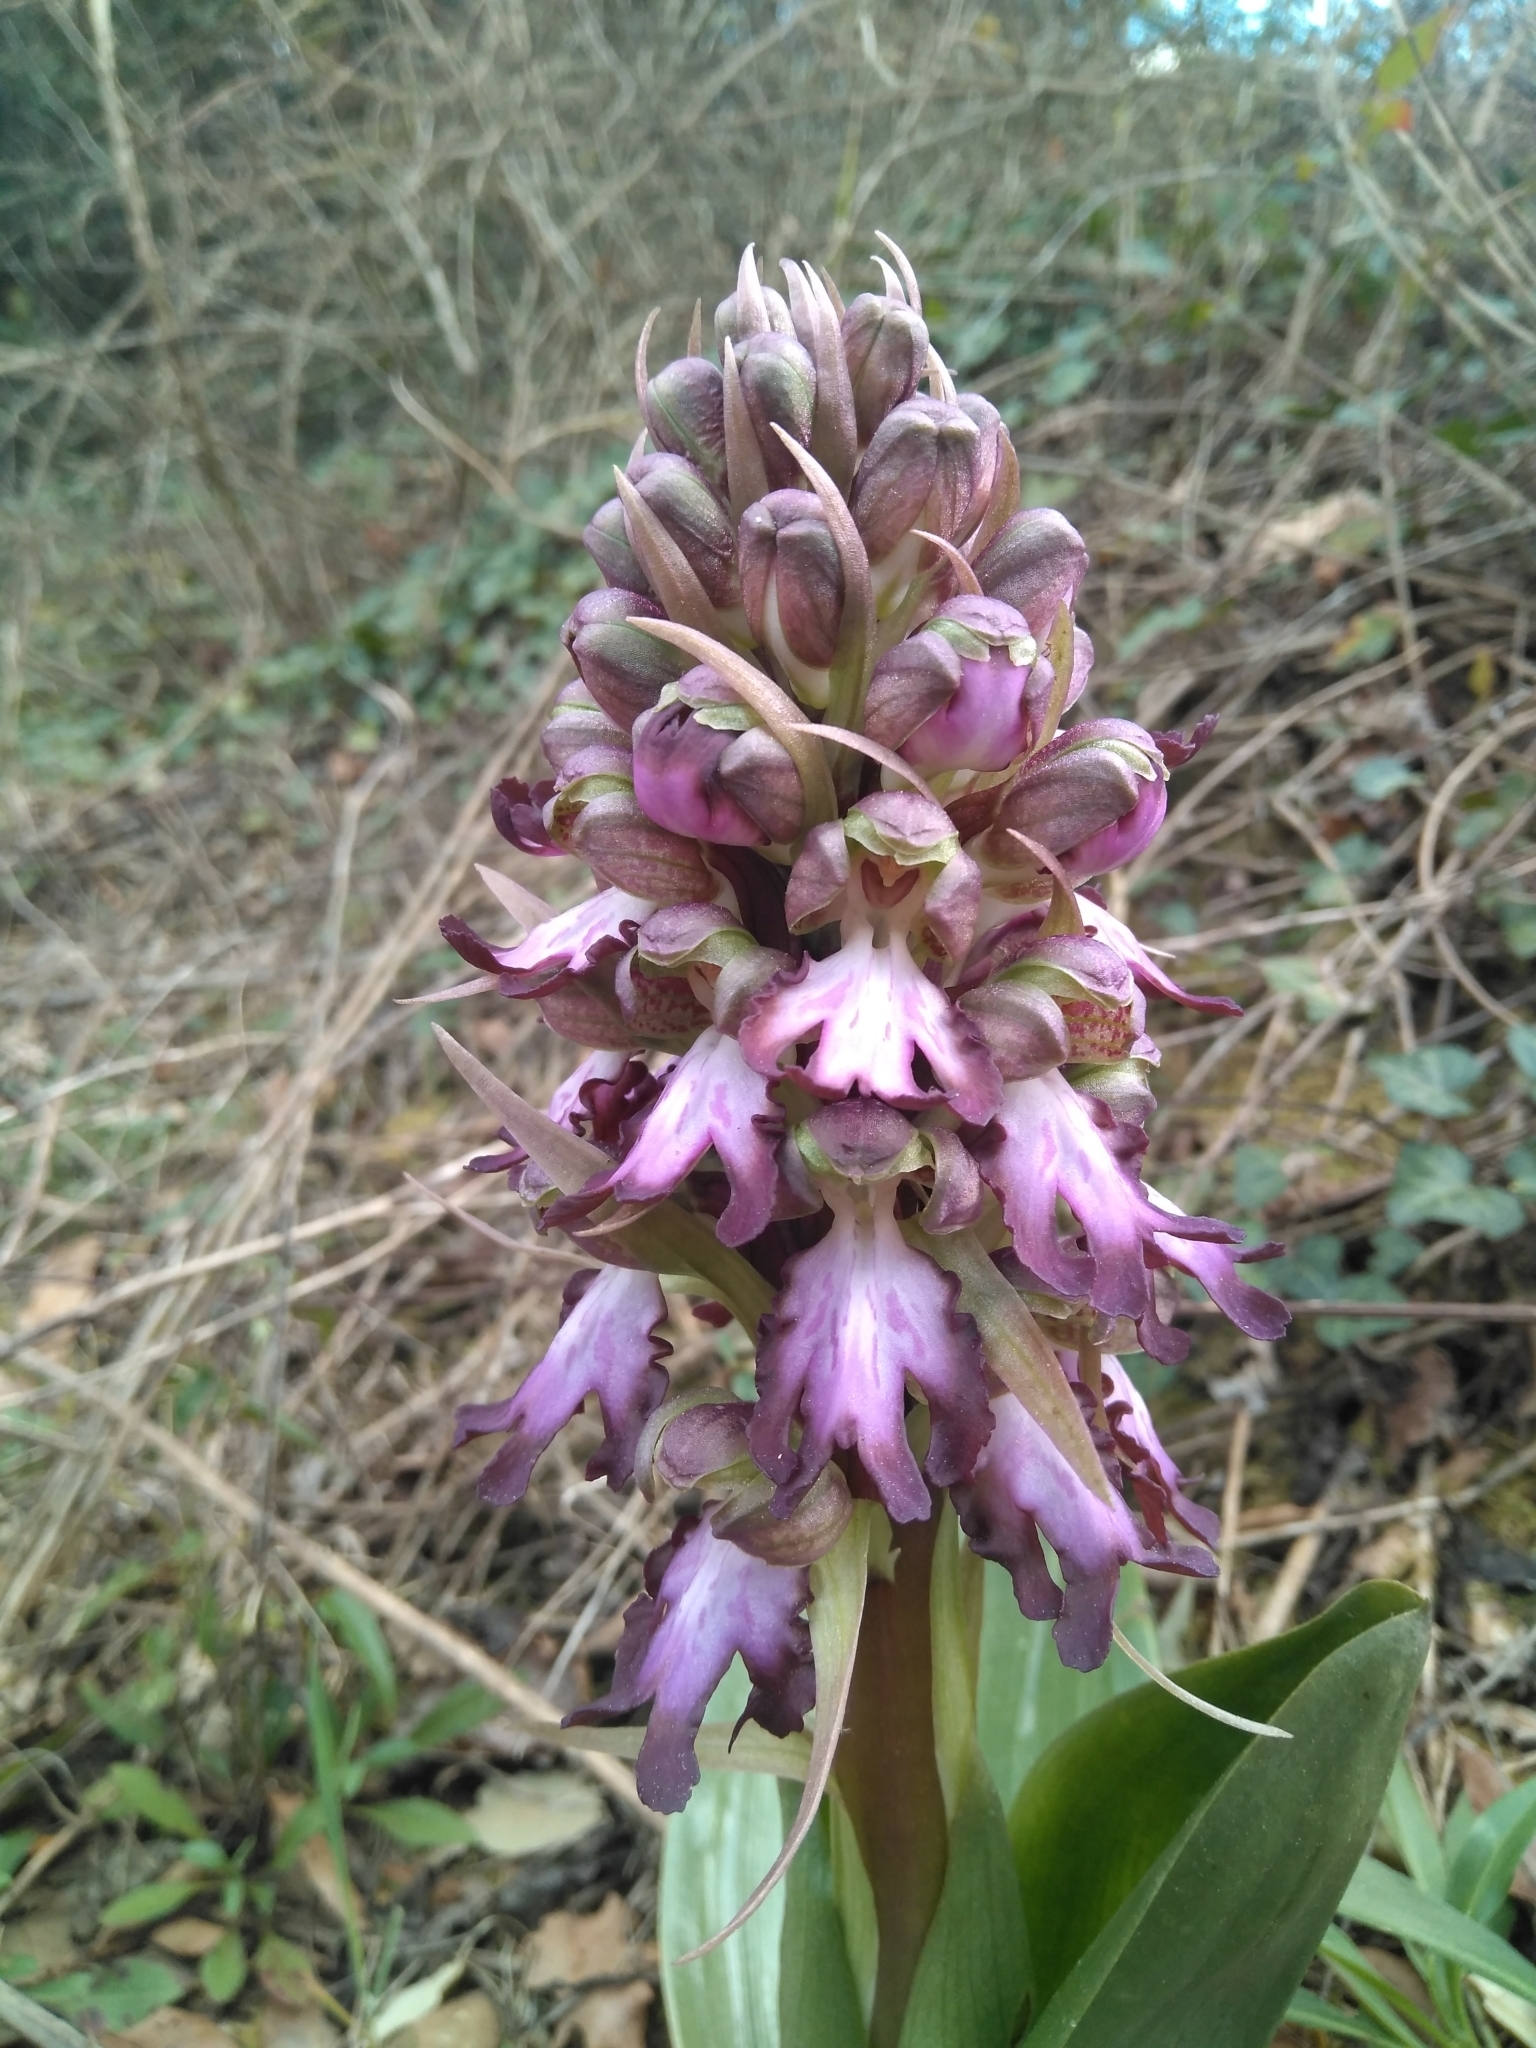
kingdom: Plantae
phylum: Tracheophyta
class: Liliopsida
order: Asparagales
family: Orchidaceae
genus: Himantoglossum
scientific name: Himantoglossum robertianum
